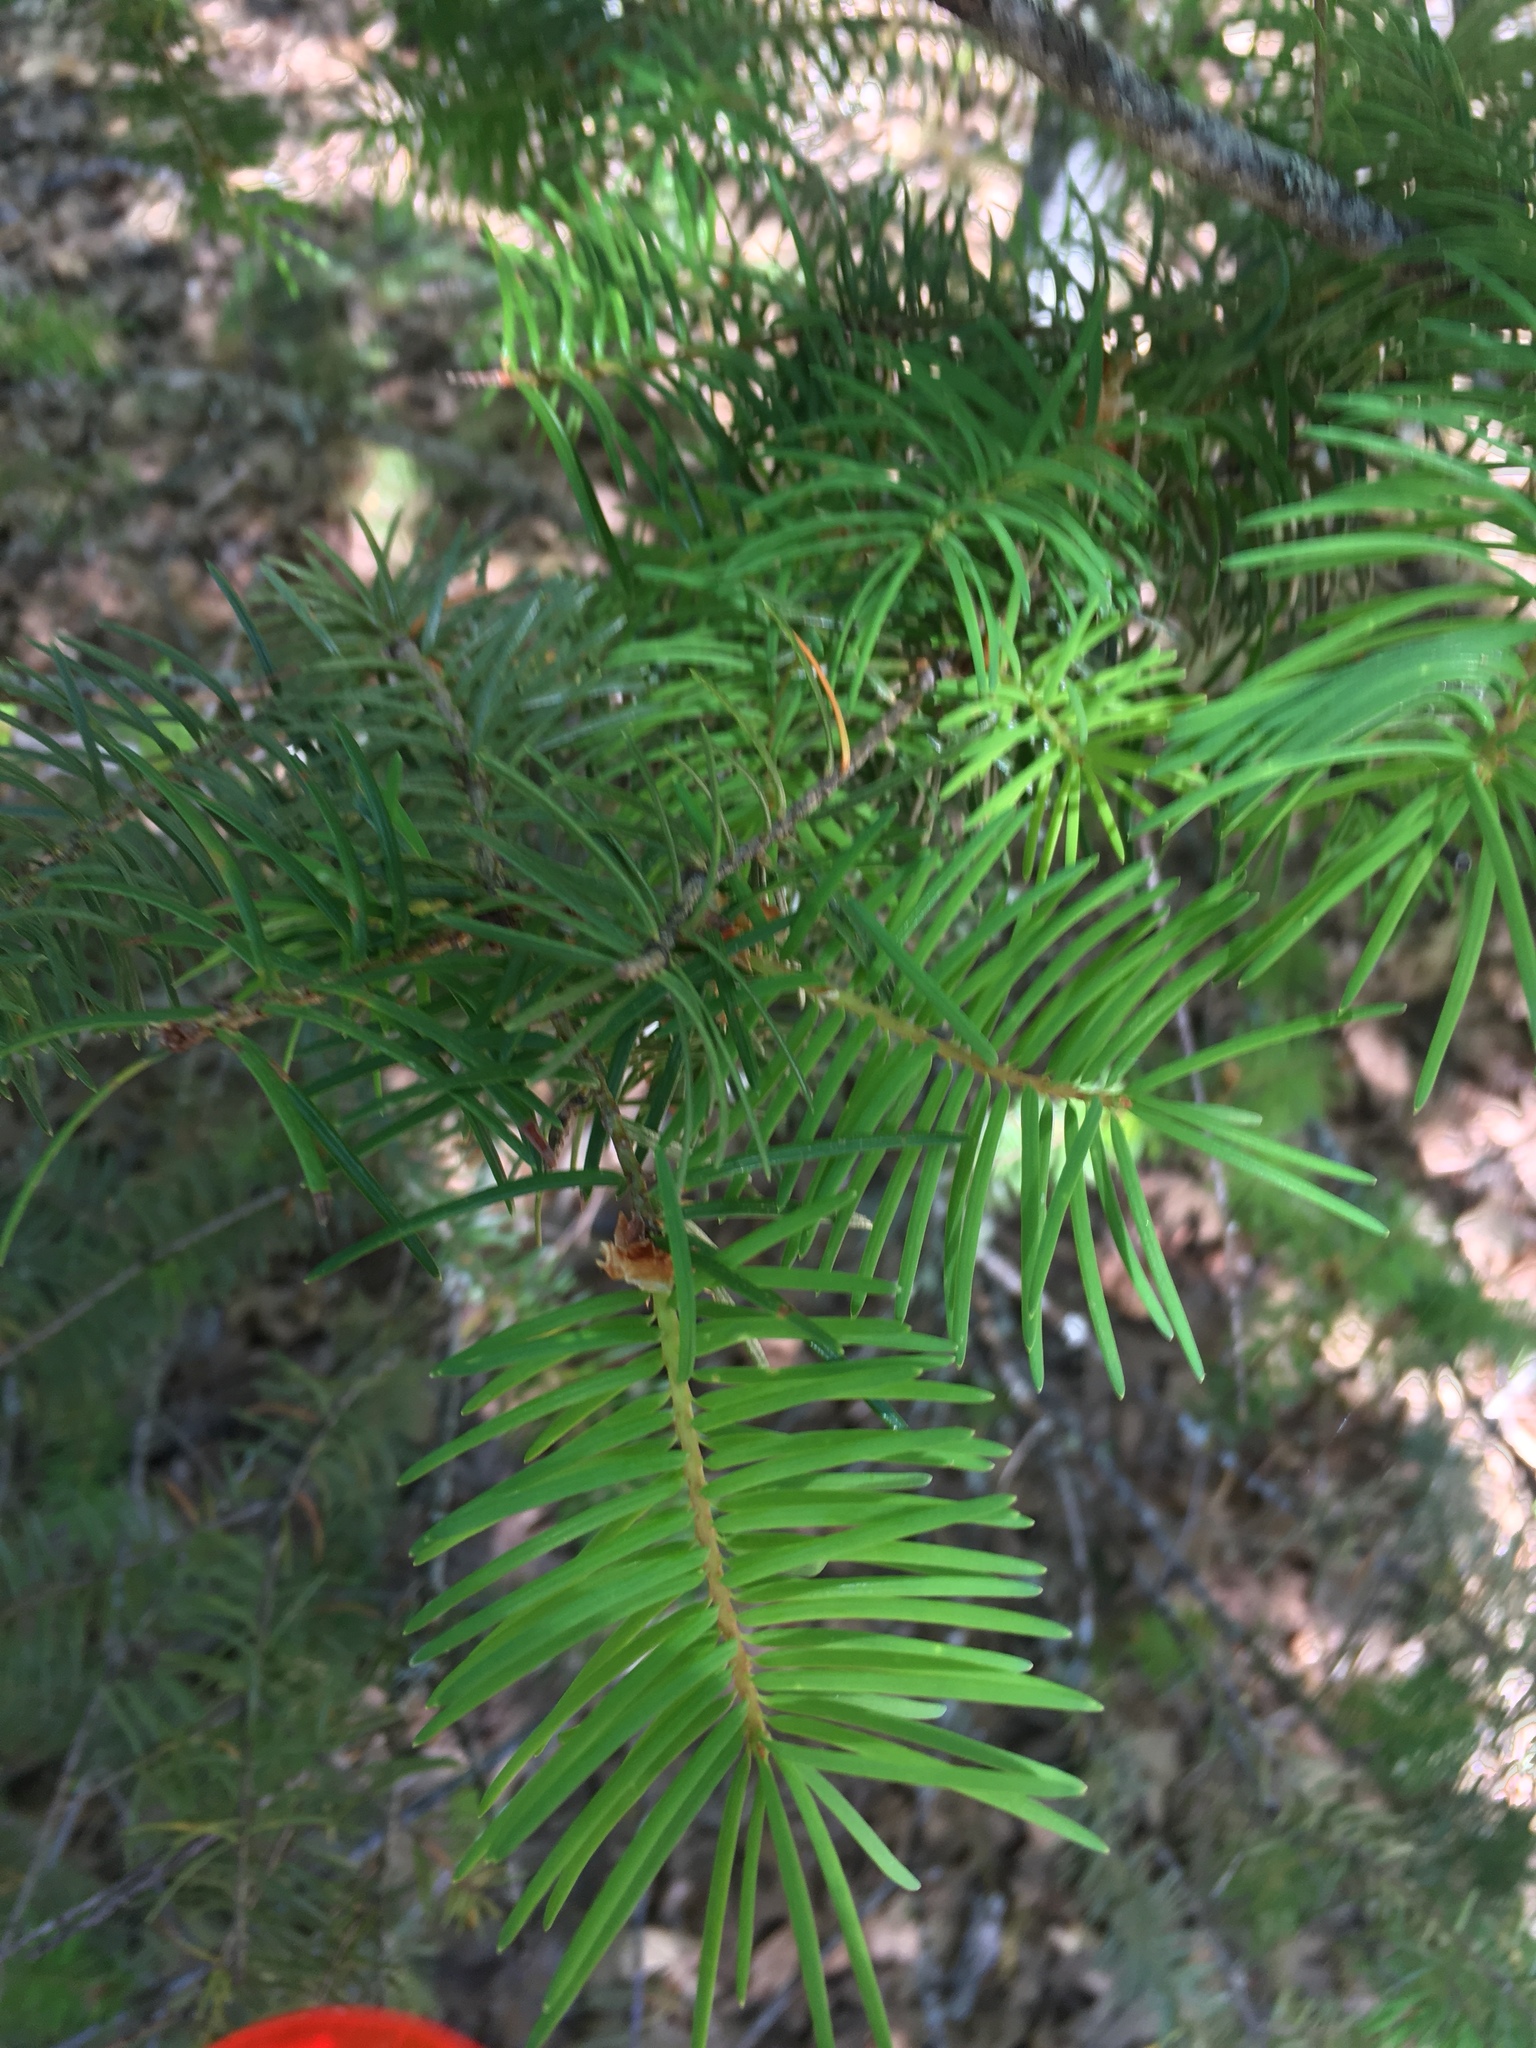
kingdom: Plantae
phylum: Tracheophyta
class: Pinopsida
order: Pinales
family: Pinaceae
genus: Pseudotsuga
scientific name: Pseudotsuga menziesii
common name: Douglas fir
